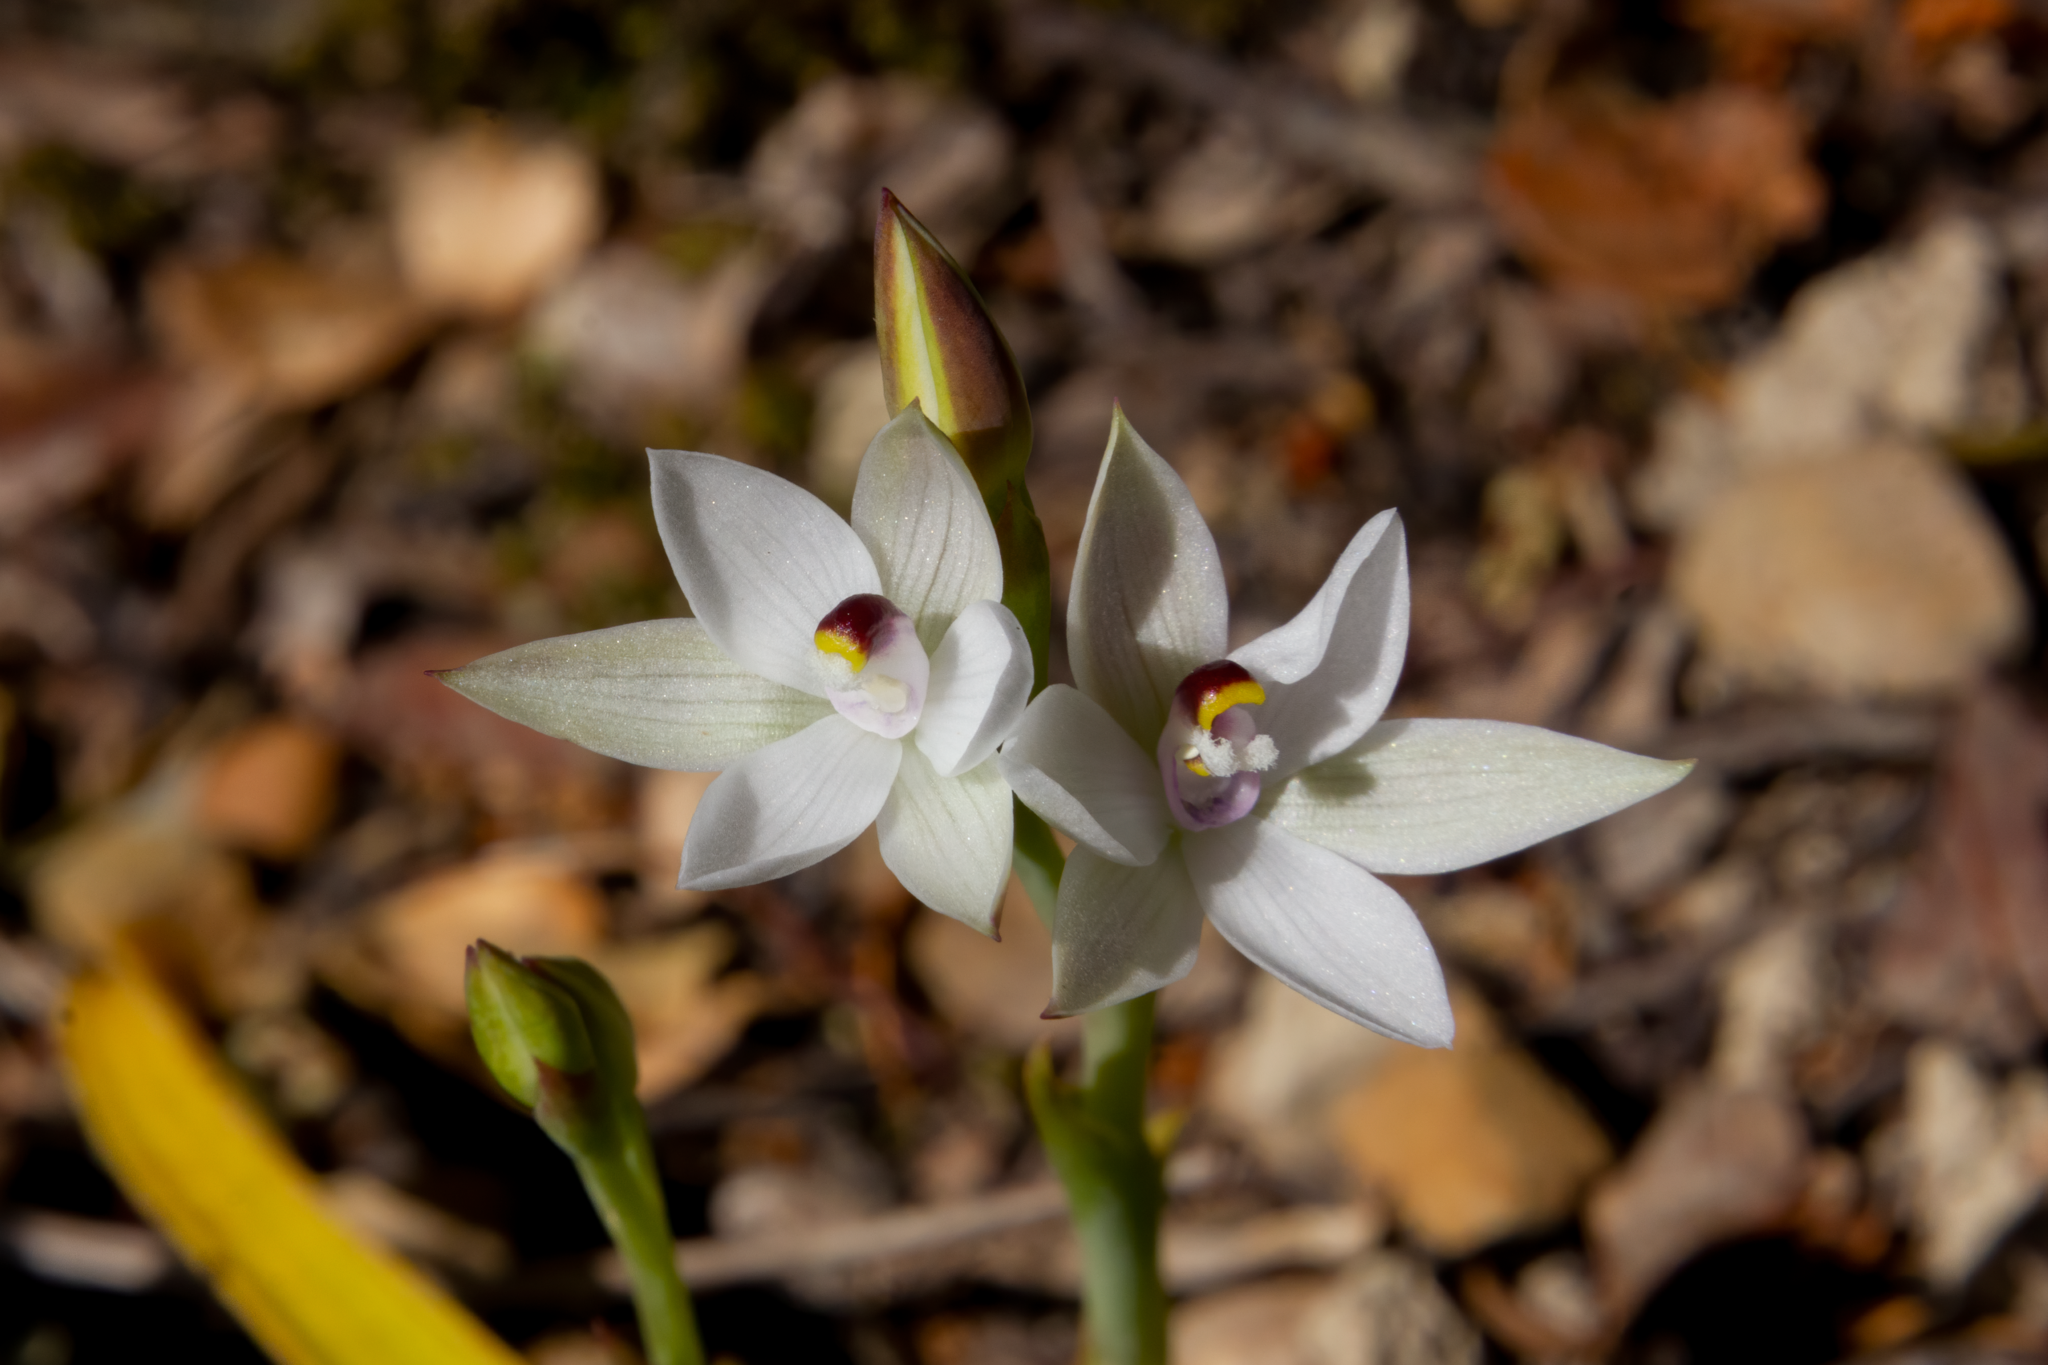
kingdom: Plantae
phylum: Tracheophyta
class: Liliopsida
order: Asparagales
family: Orchidaceae
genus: Thelymitra
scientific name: Thelymitra longifolia
